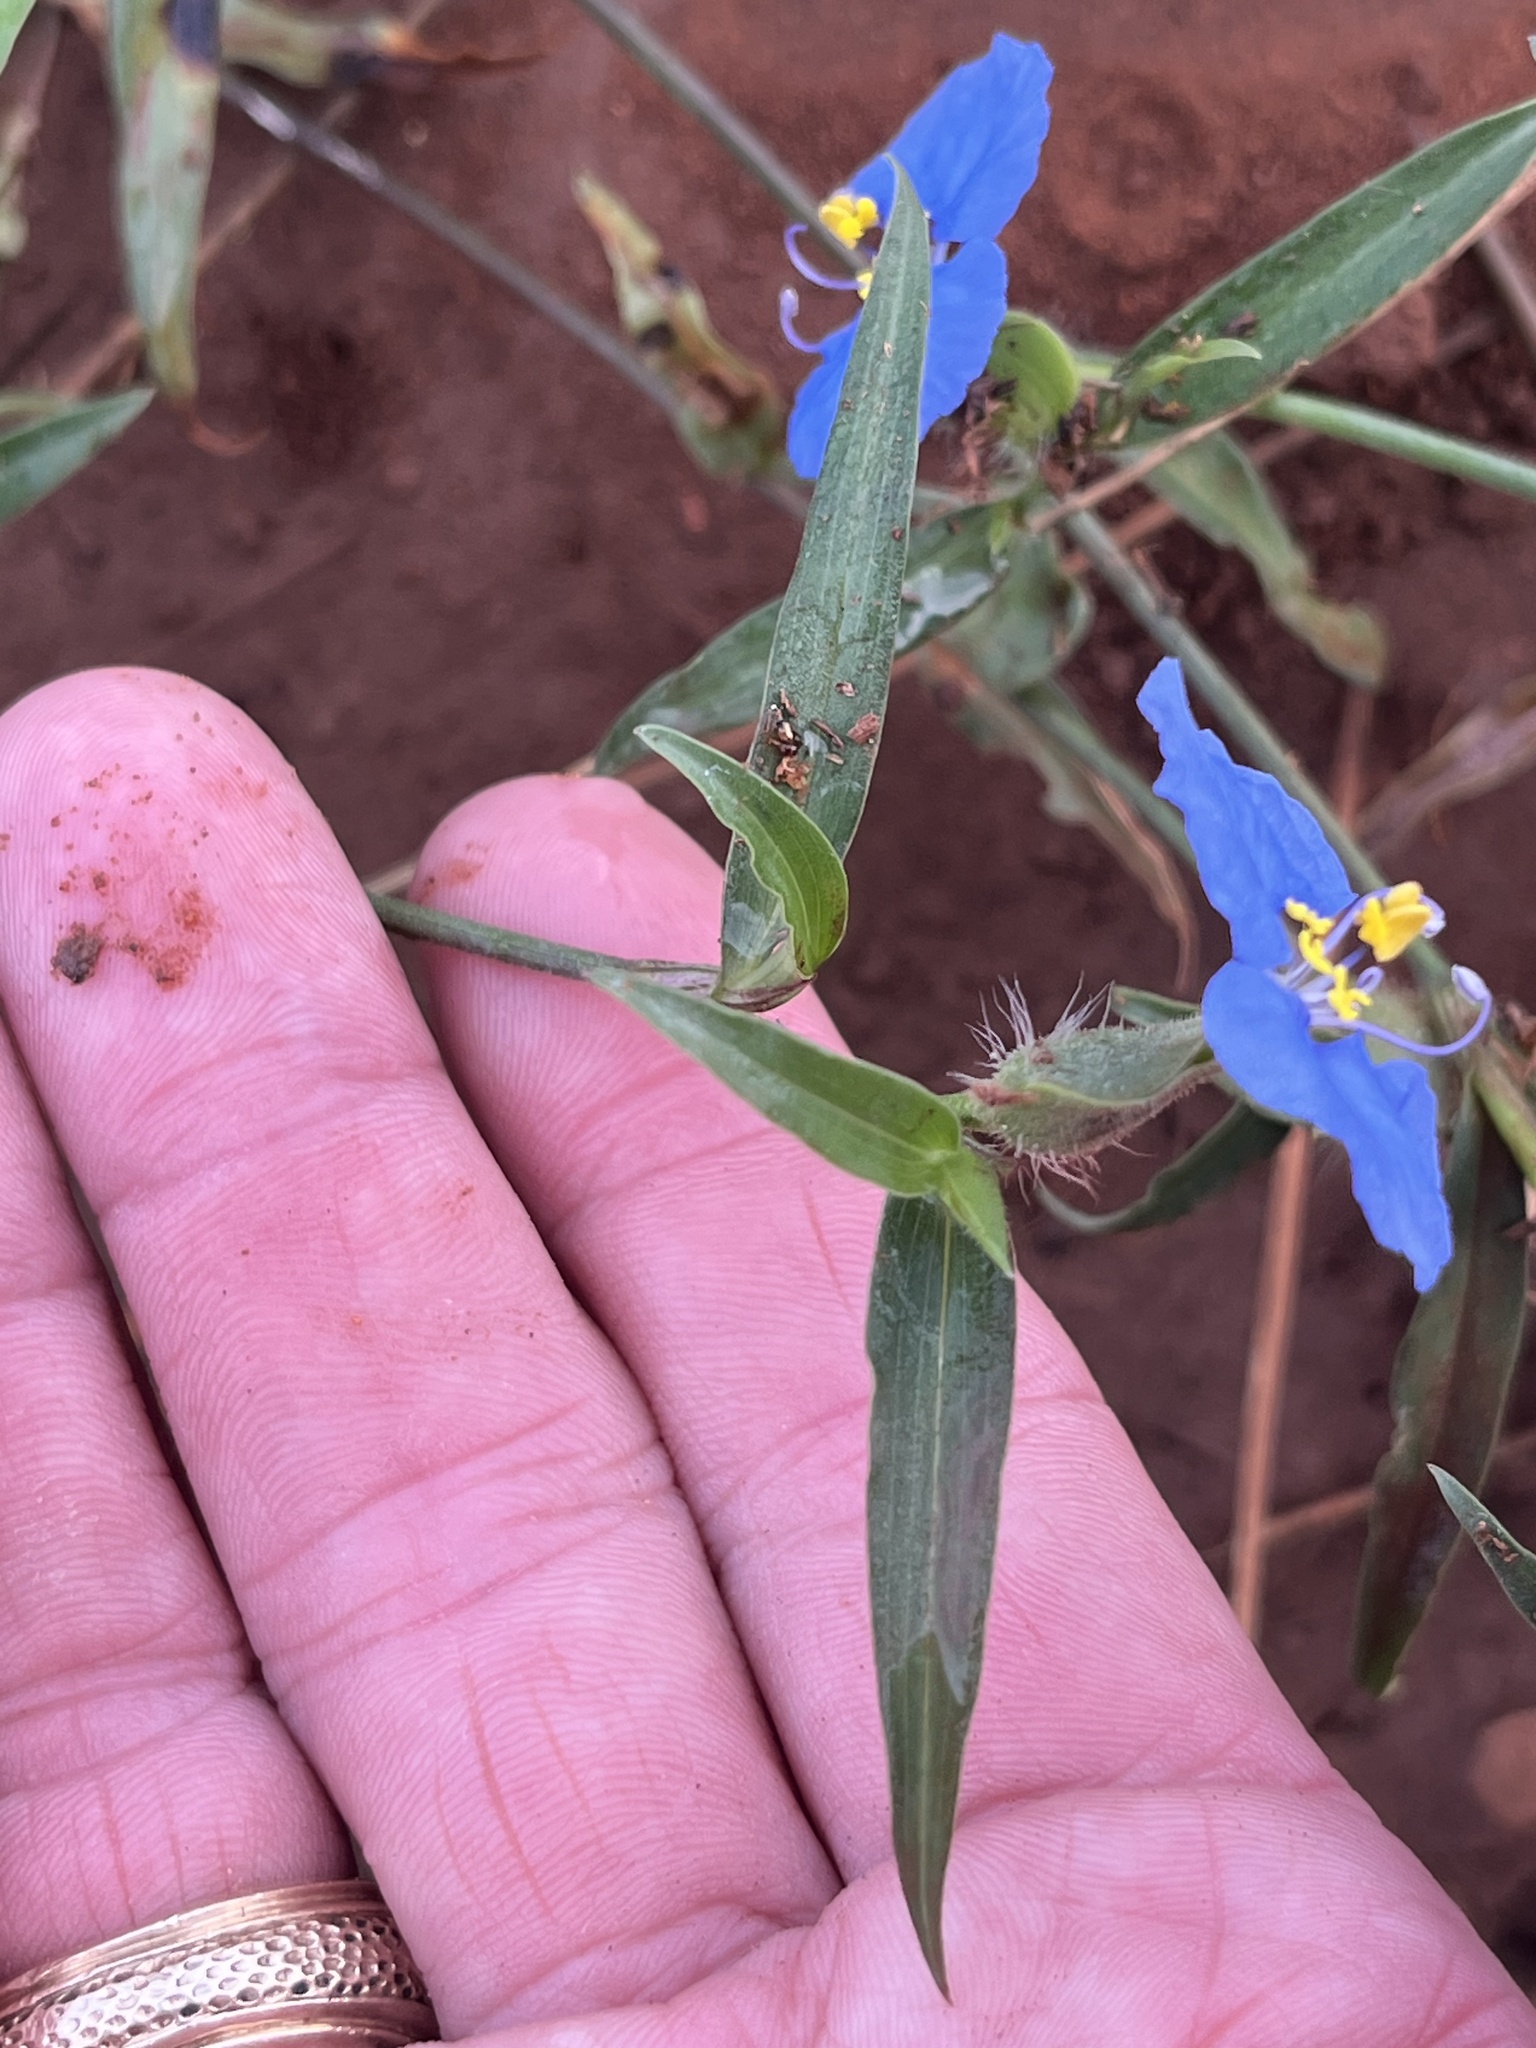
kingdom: Plantae
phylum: Tracheophyta
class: Liliopsida
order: Commelinales
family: Commelinaceae
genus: Commelina
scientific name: Commelina erecta
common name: Blousel blommetjie
